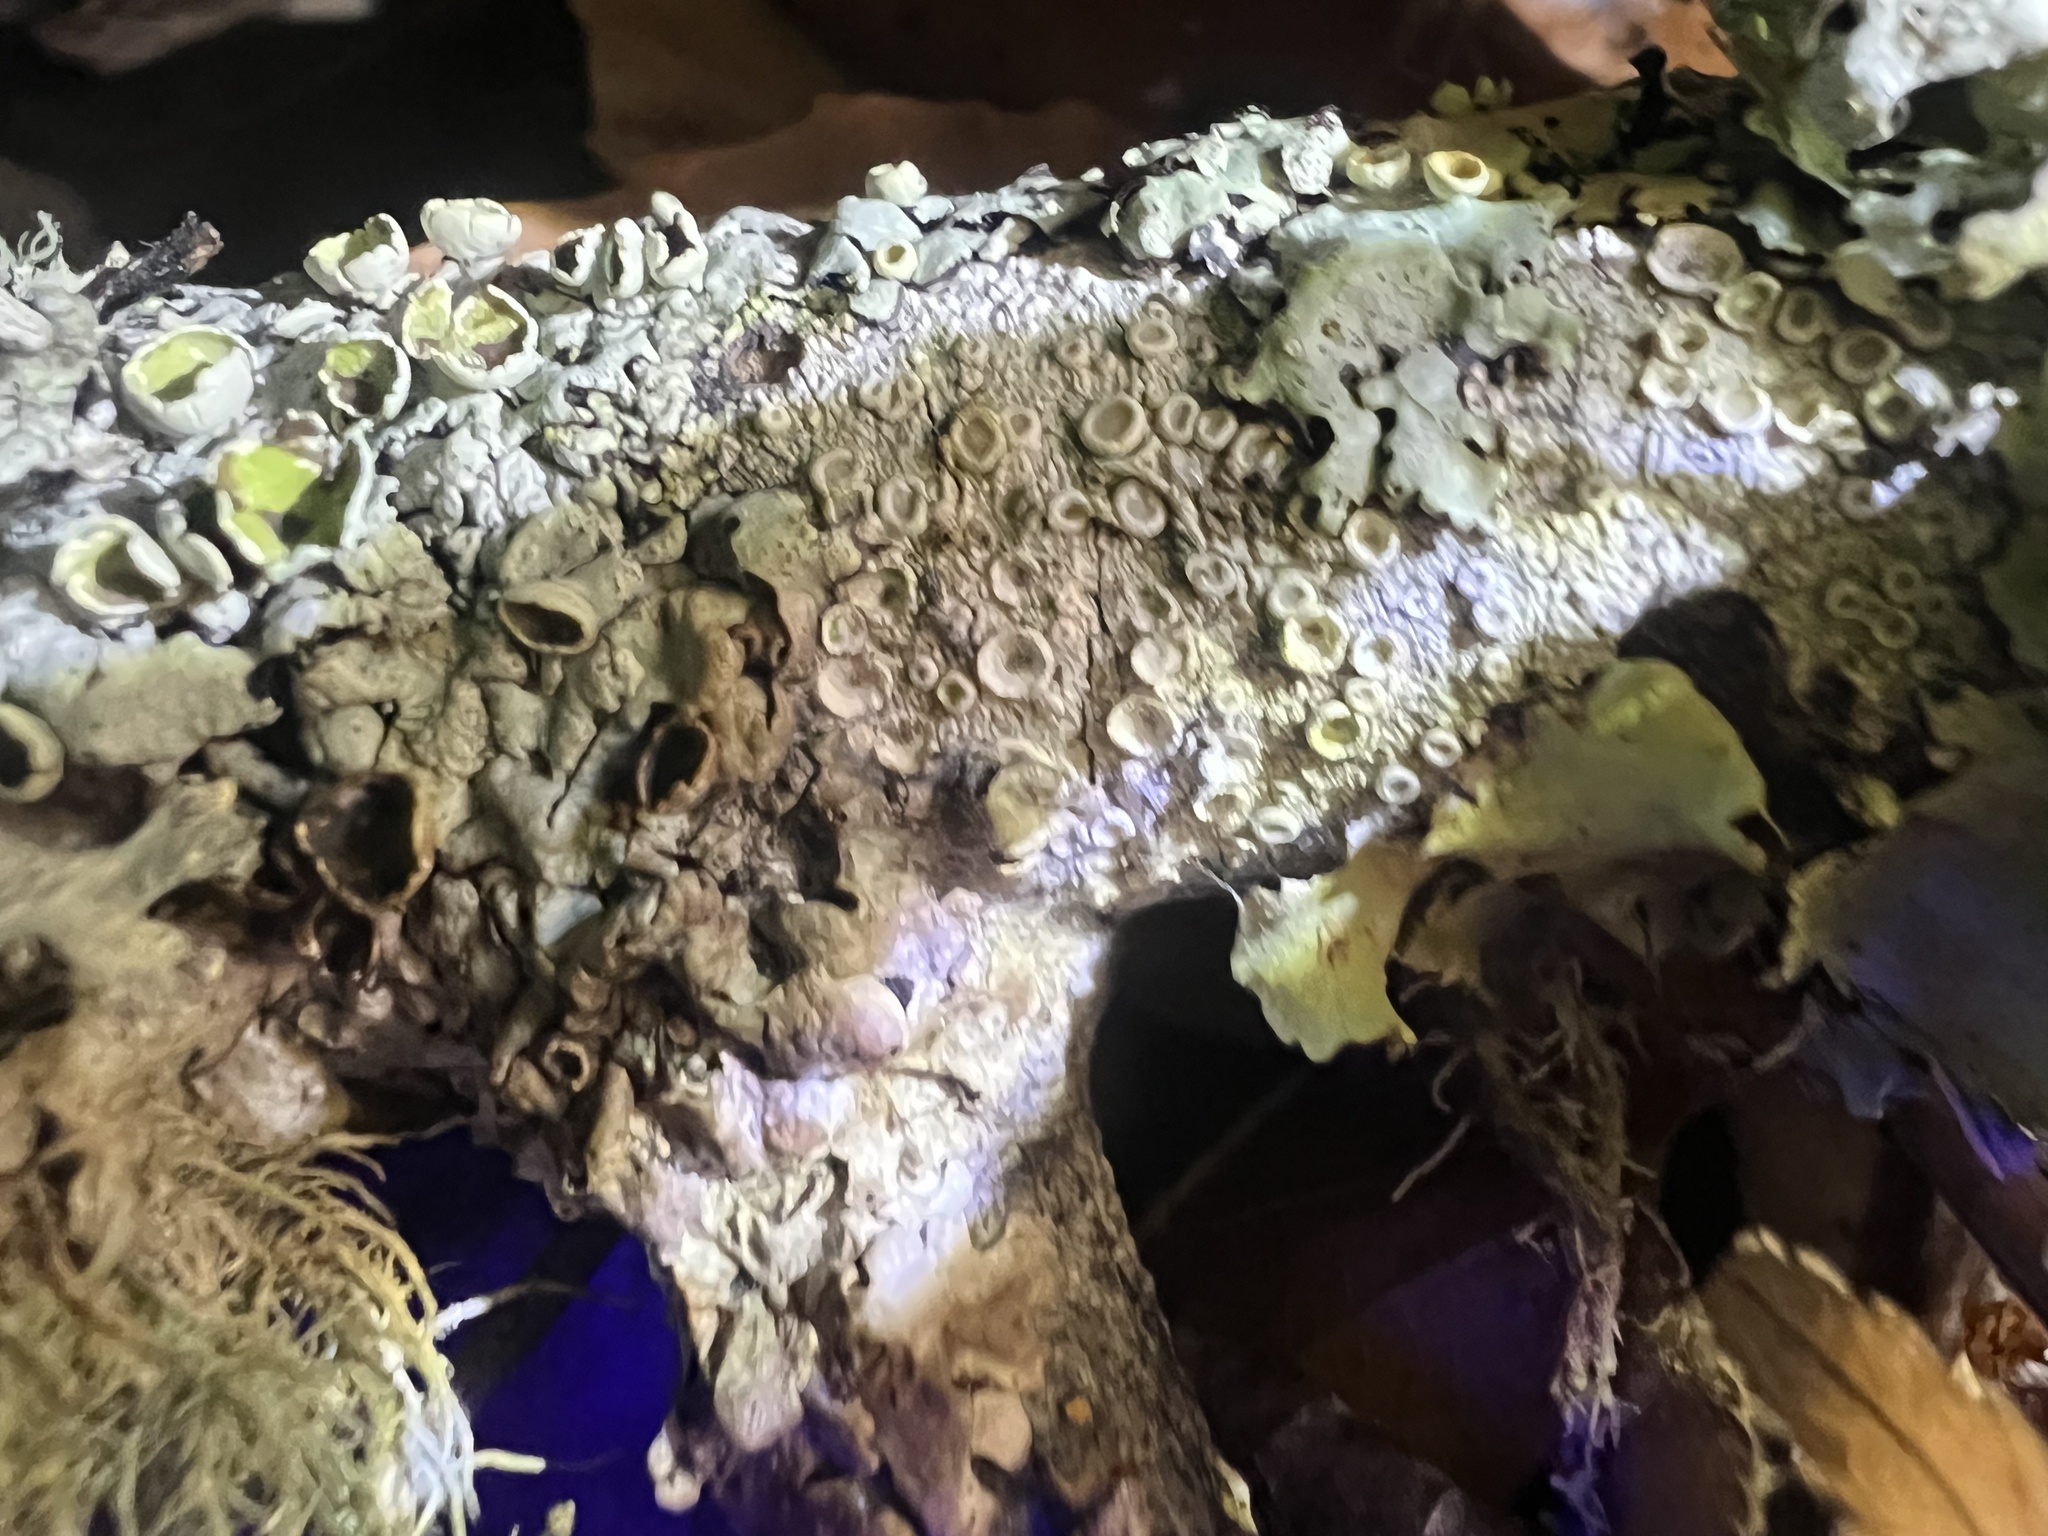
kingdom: Fungi
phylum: Ascomycota
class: Lecanoromycetes
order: Pertusariales
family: Ochrolechiaceae
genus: Ochrolechia
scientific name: Ochrolechia africana
